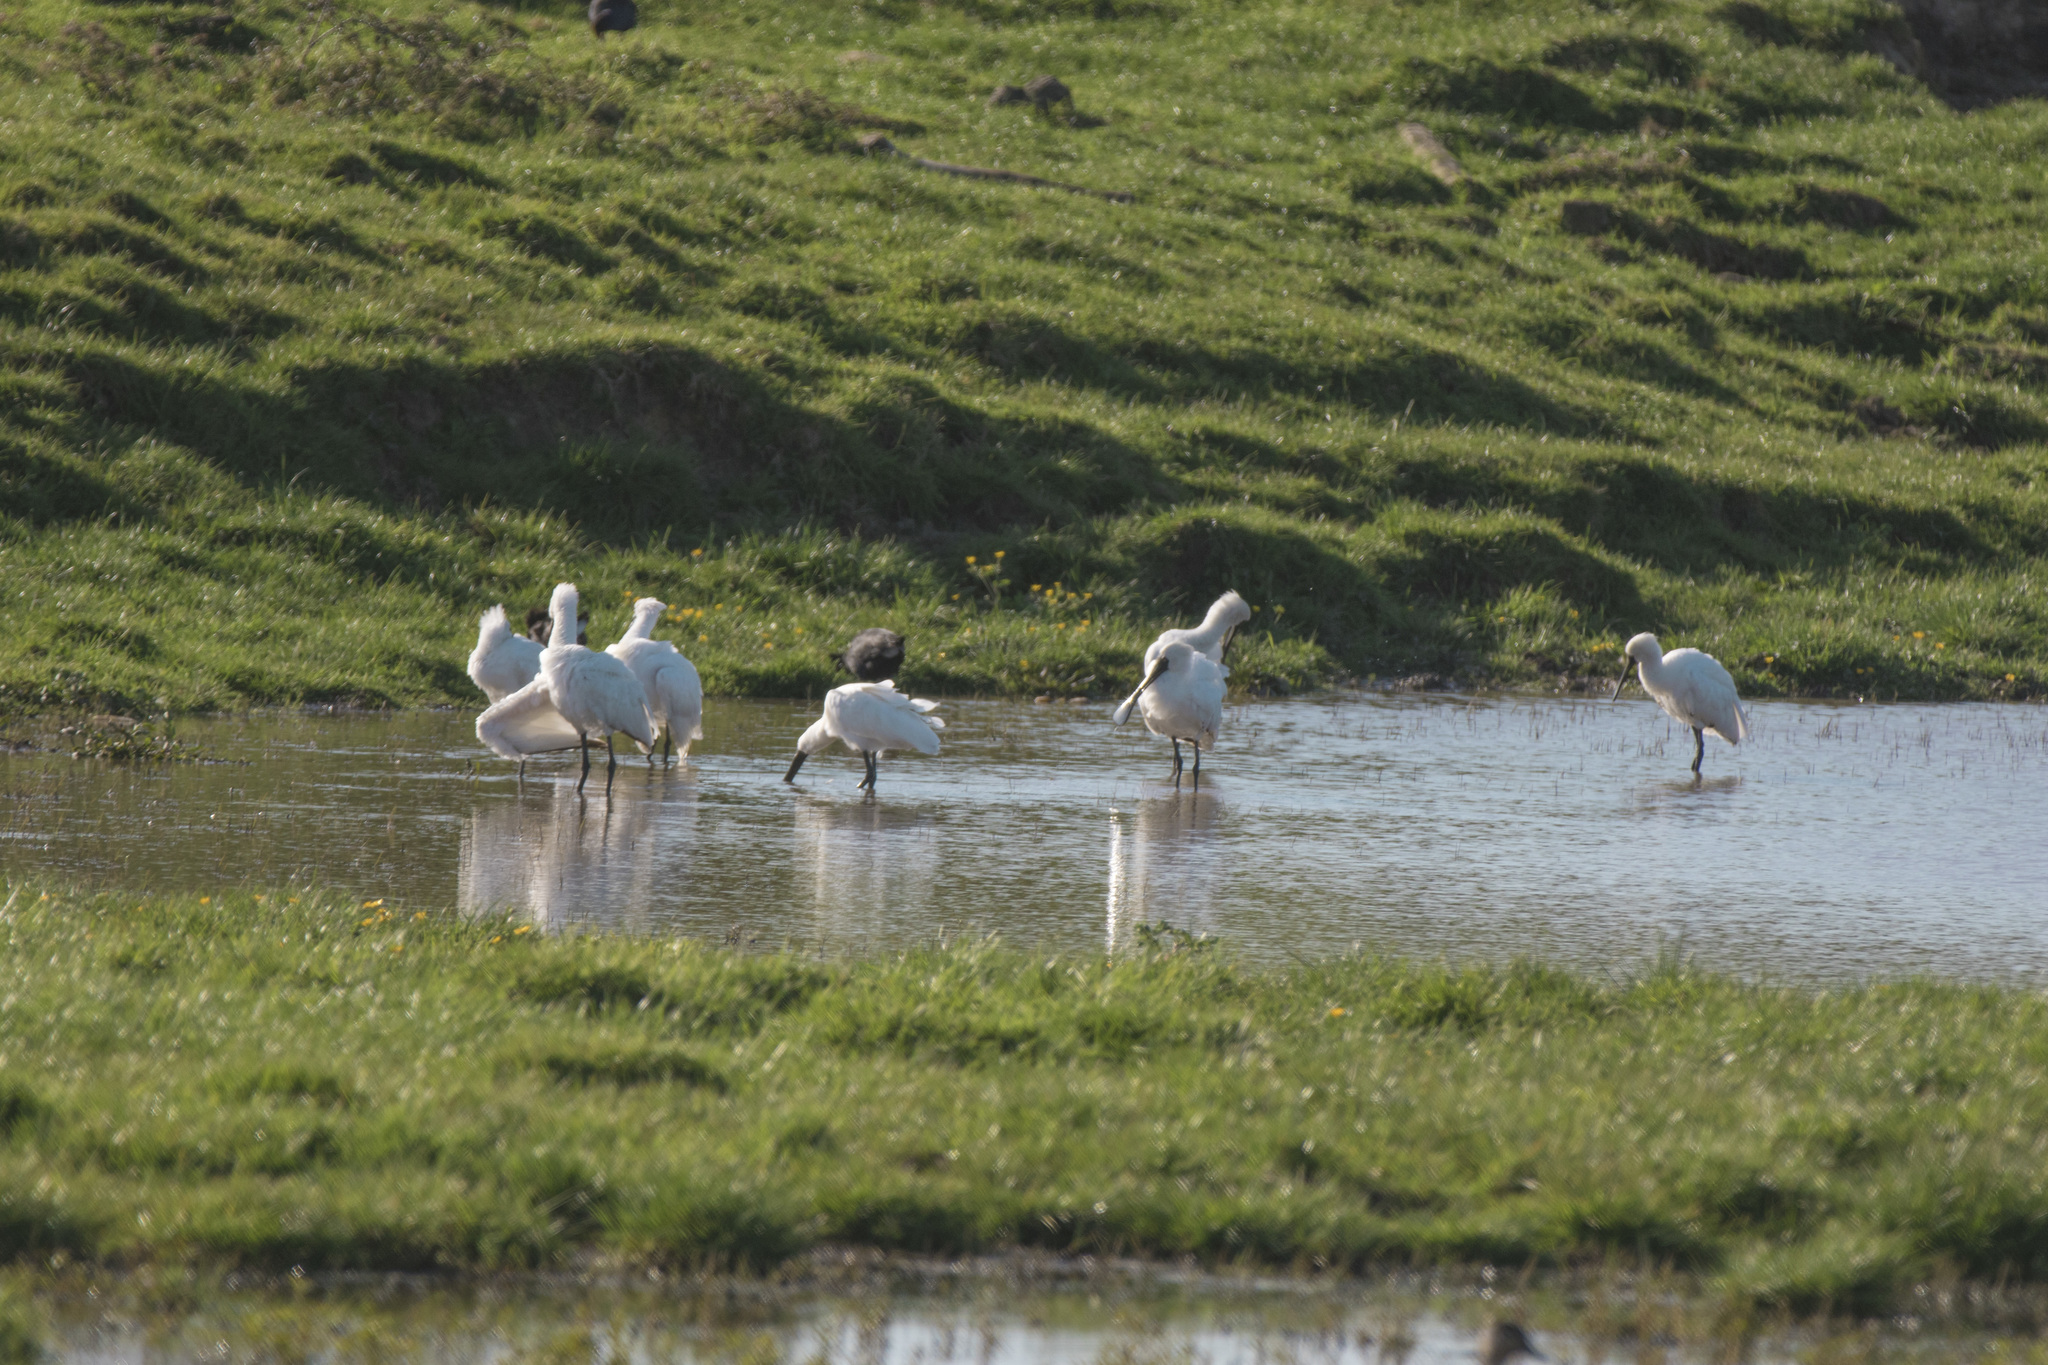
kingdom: Animalia
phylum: Chordata
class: Aves
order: Pelecaniformes
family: Threskiornithidae
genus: Platalea
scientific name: Platalea regia
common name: Royal spoonbill
